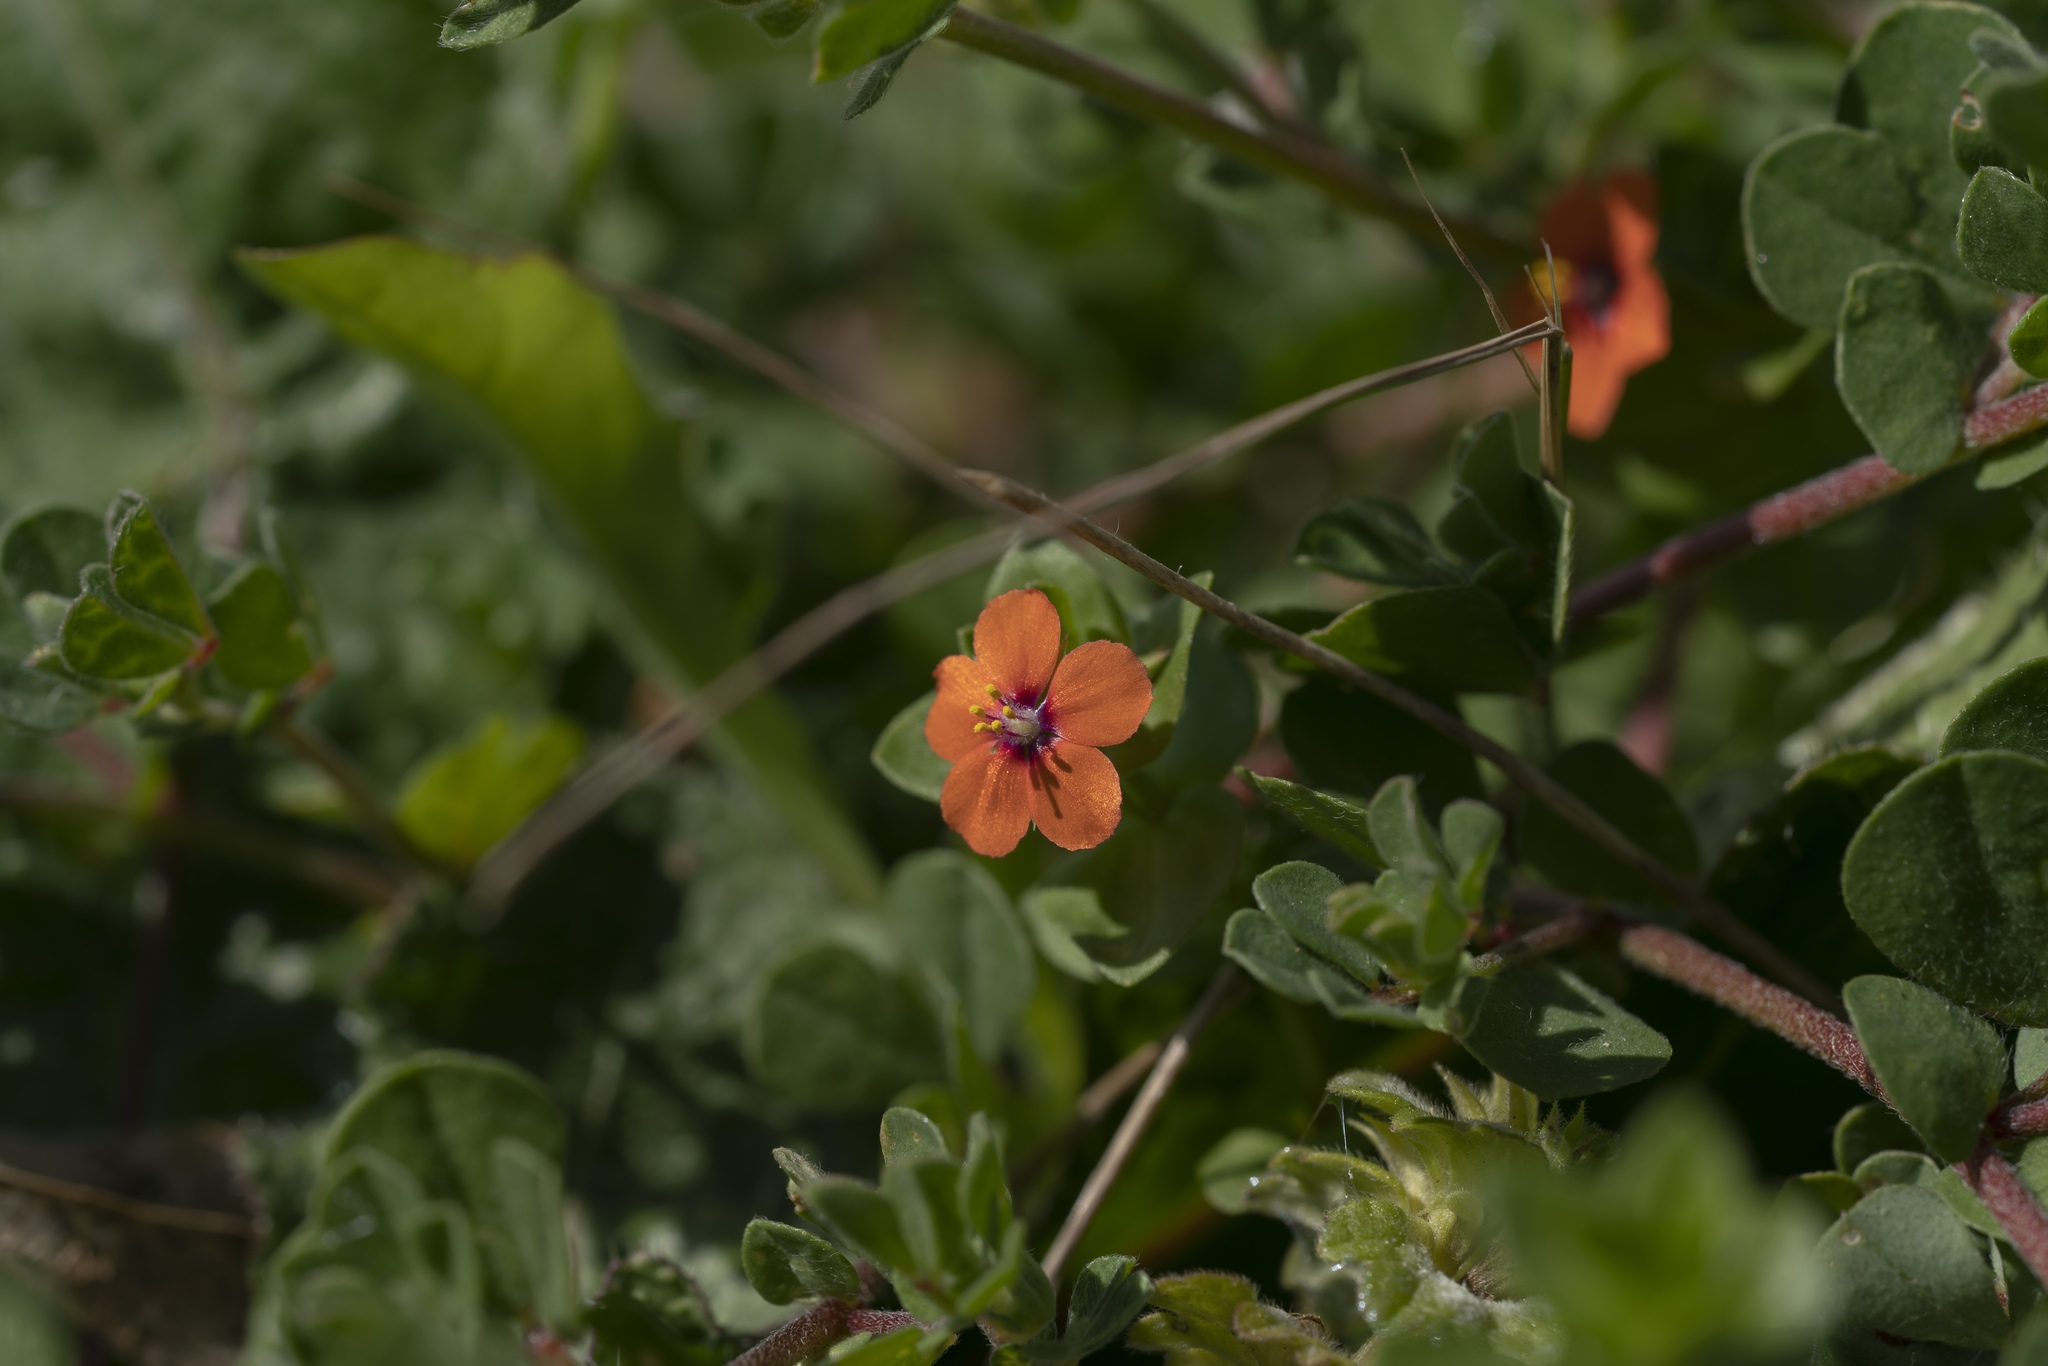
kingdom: Plantae
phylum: Tracheophyta
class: Magnoliopsida
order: Ericales
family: Primulaceae
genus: Lysimachia
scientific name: Lysimachia arvensis
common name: Scarlet pimpernel
